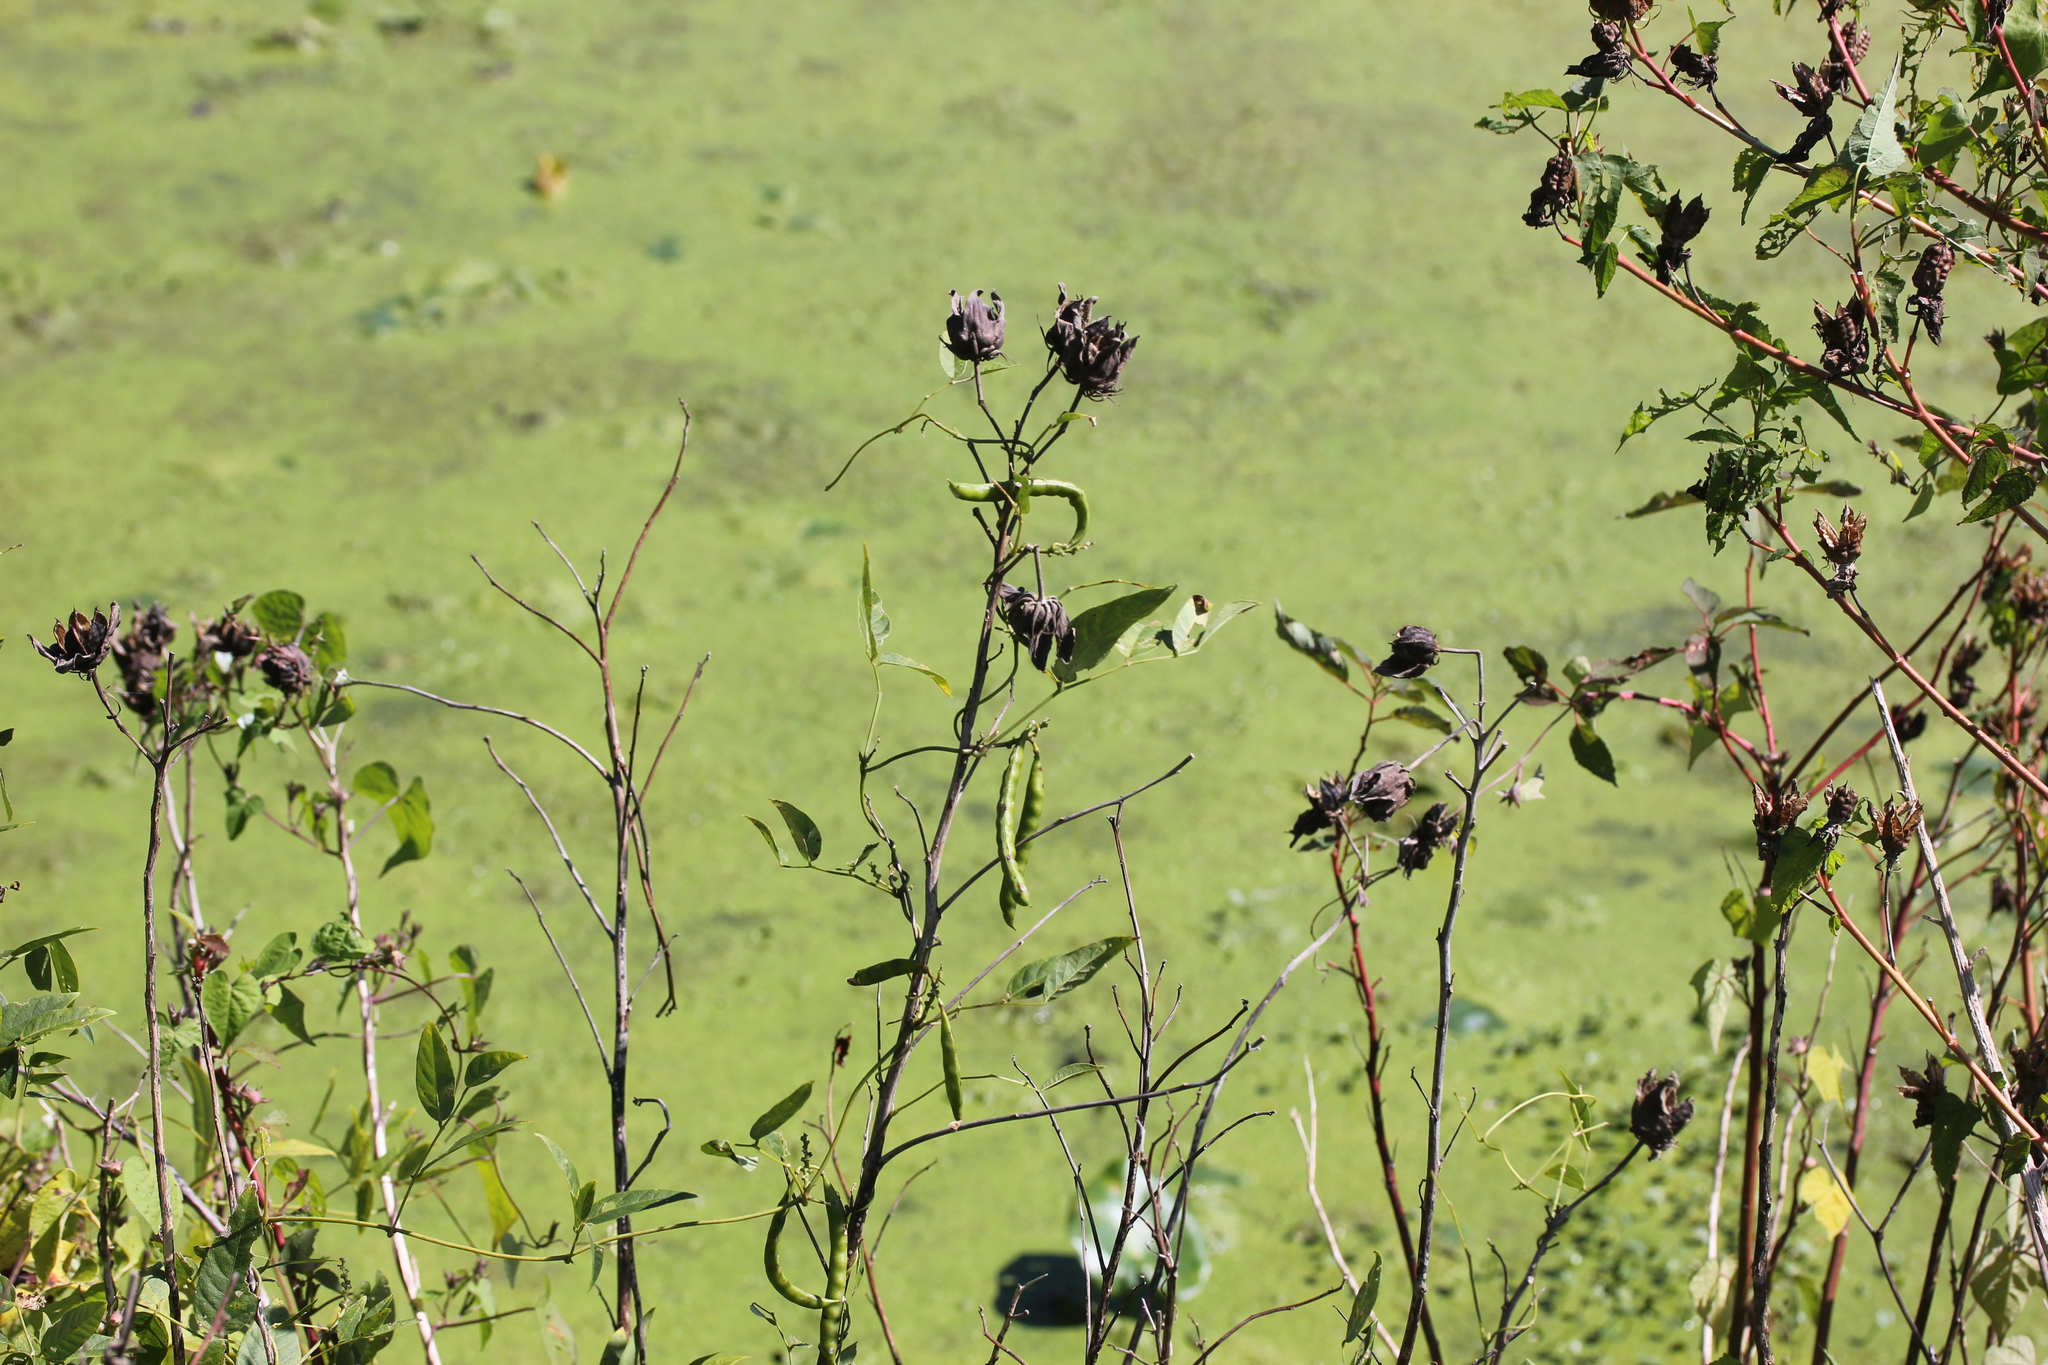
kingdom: Plantae
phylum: Tracheophyta
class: Magnoliopsida
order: Malvales
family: Malvaceae
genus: Hibiscus
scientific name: Hibiscus laevis
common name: Scarlet rose-mallow
